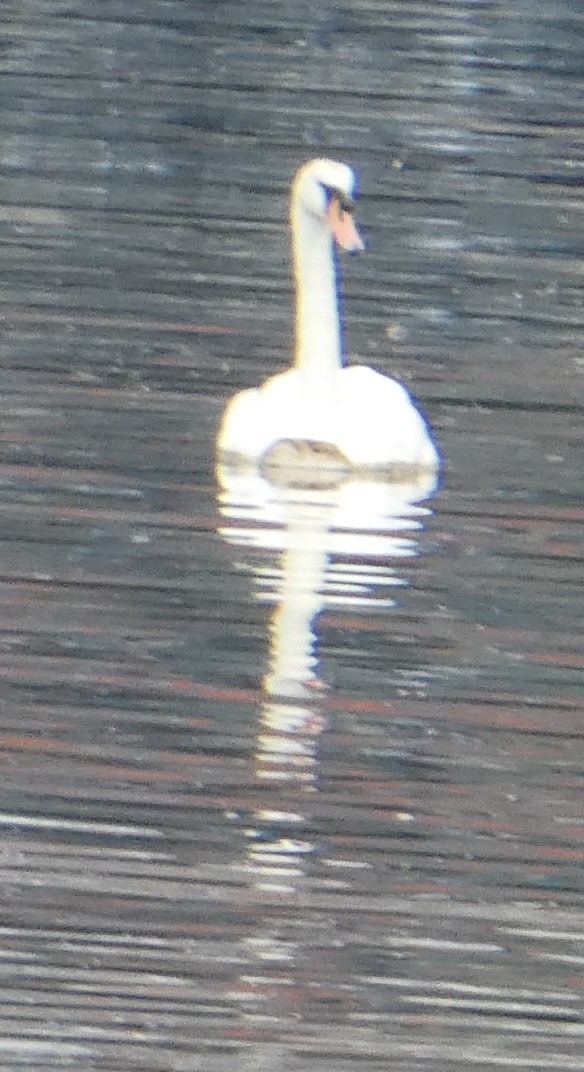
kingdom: Animalia
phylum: Chordata
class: Aves
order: Anseriformes
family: Anatidae
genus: Cygnus
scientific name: Cygnus olor
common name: Mute swan
